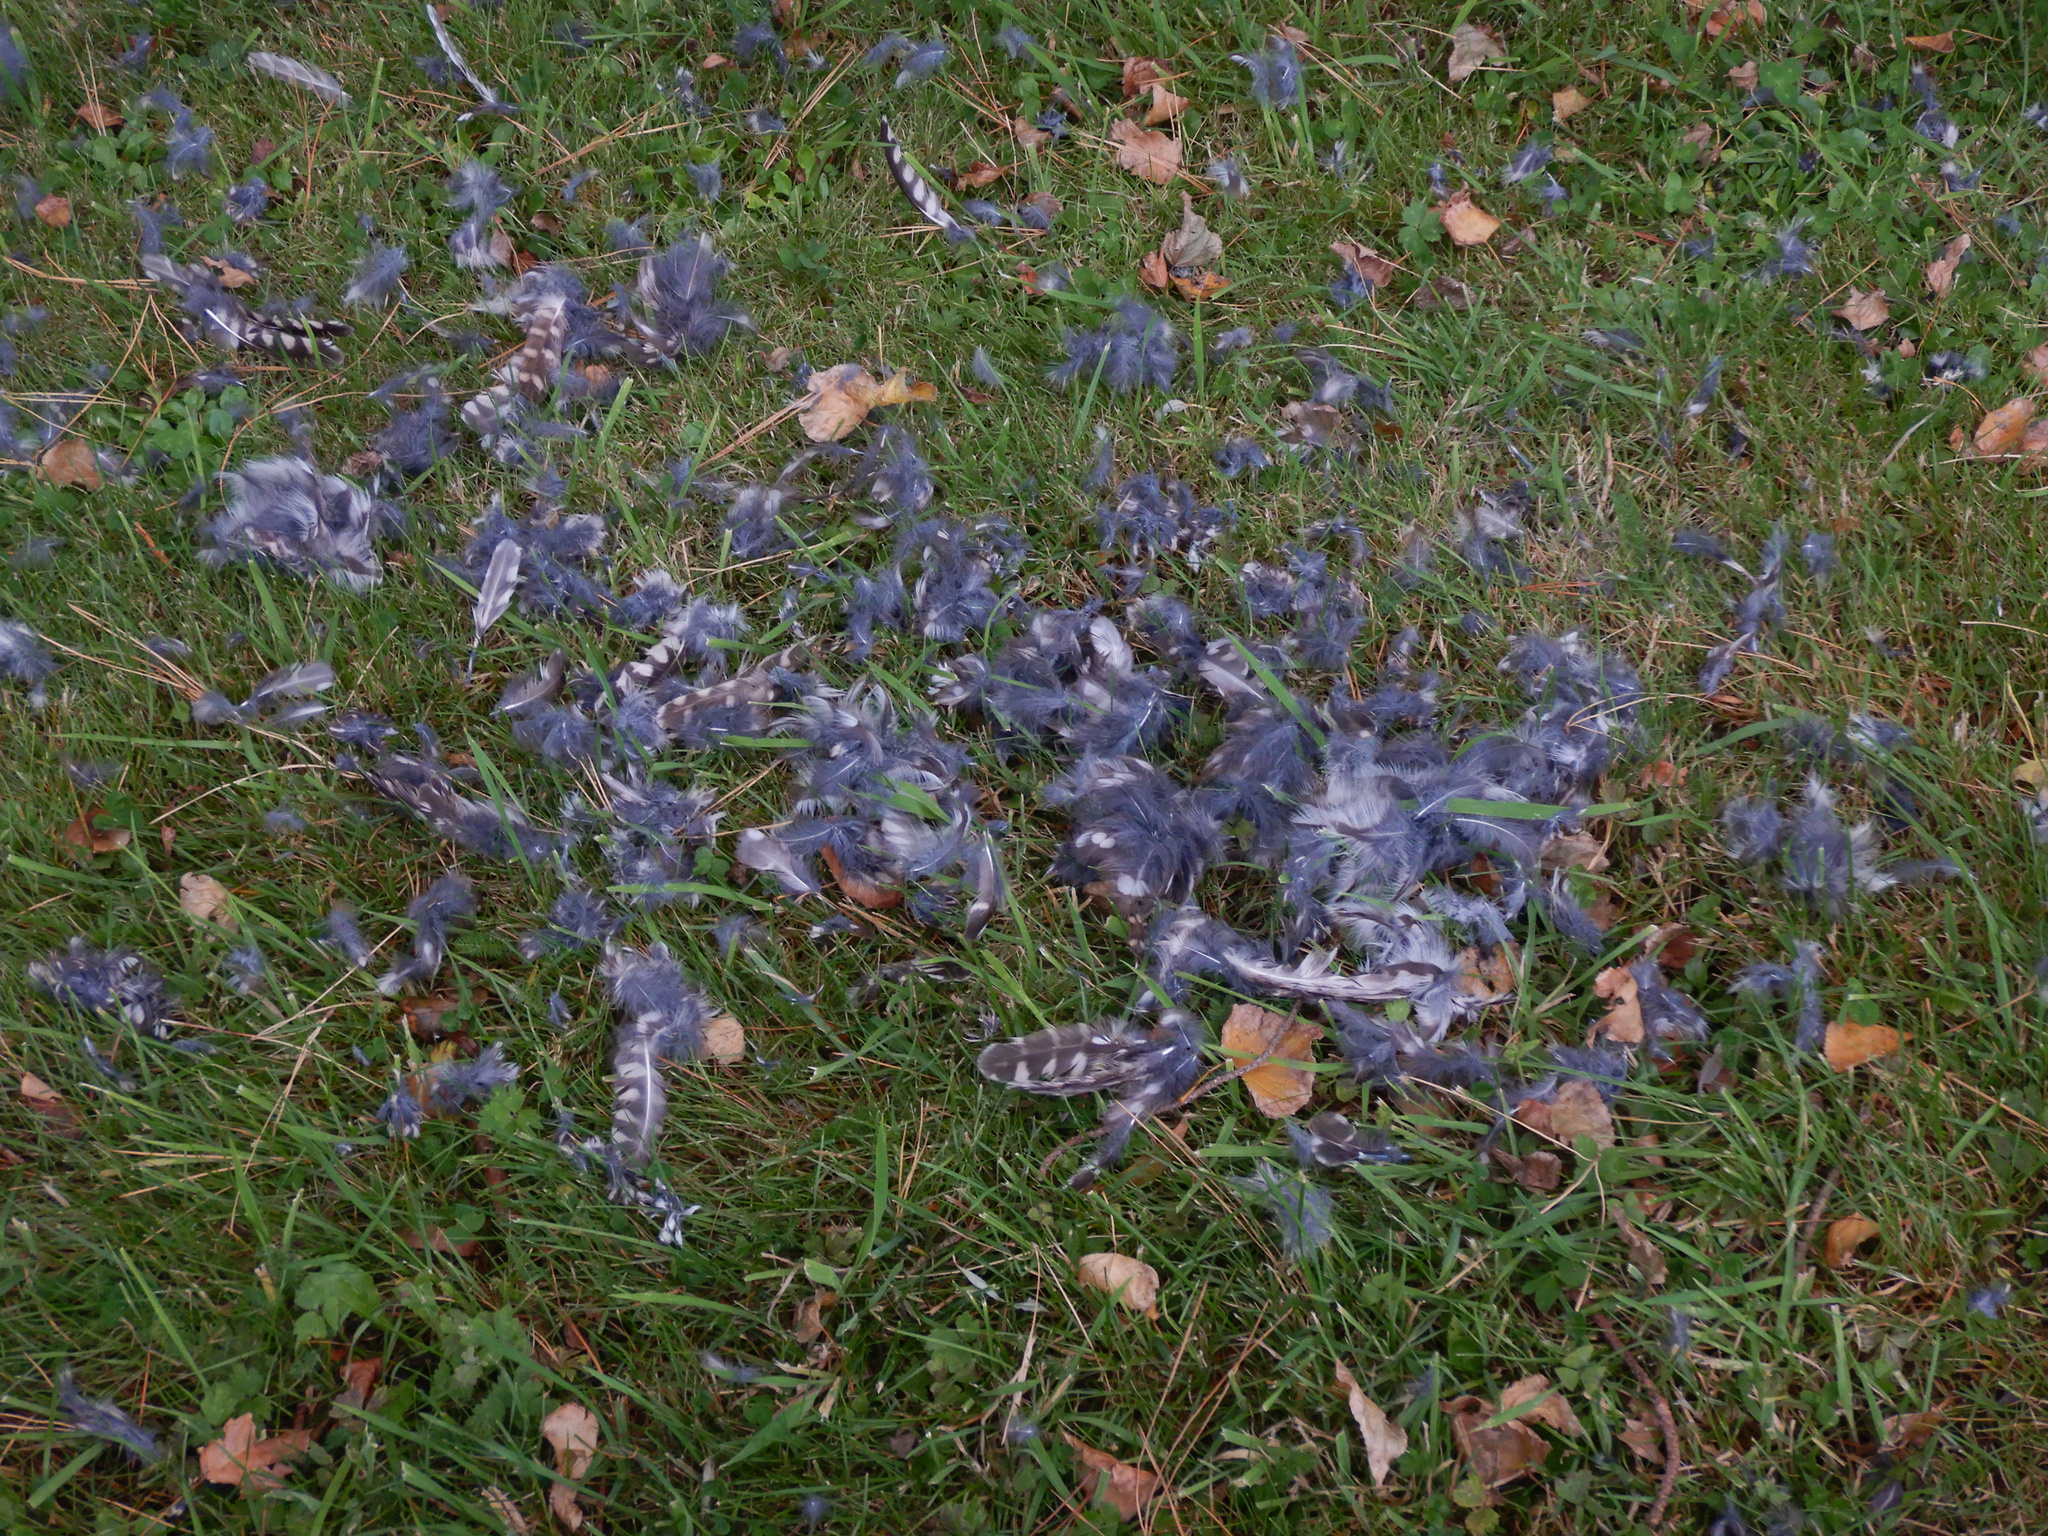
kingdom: Animalia
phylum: Chordata
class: Aves
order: Strigiformes
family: Strigidae
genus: Athene
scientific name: Athene noctua
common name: Little owl
